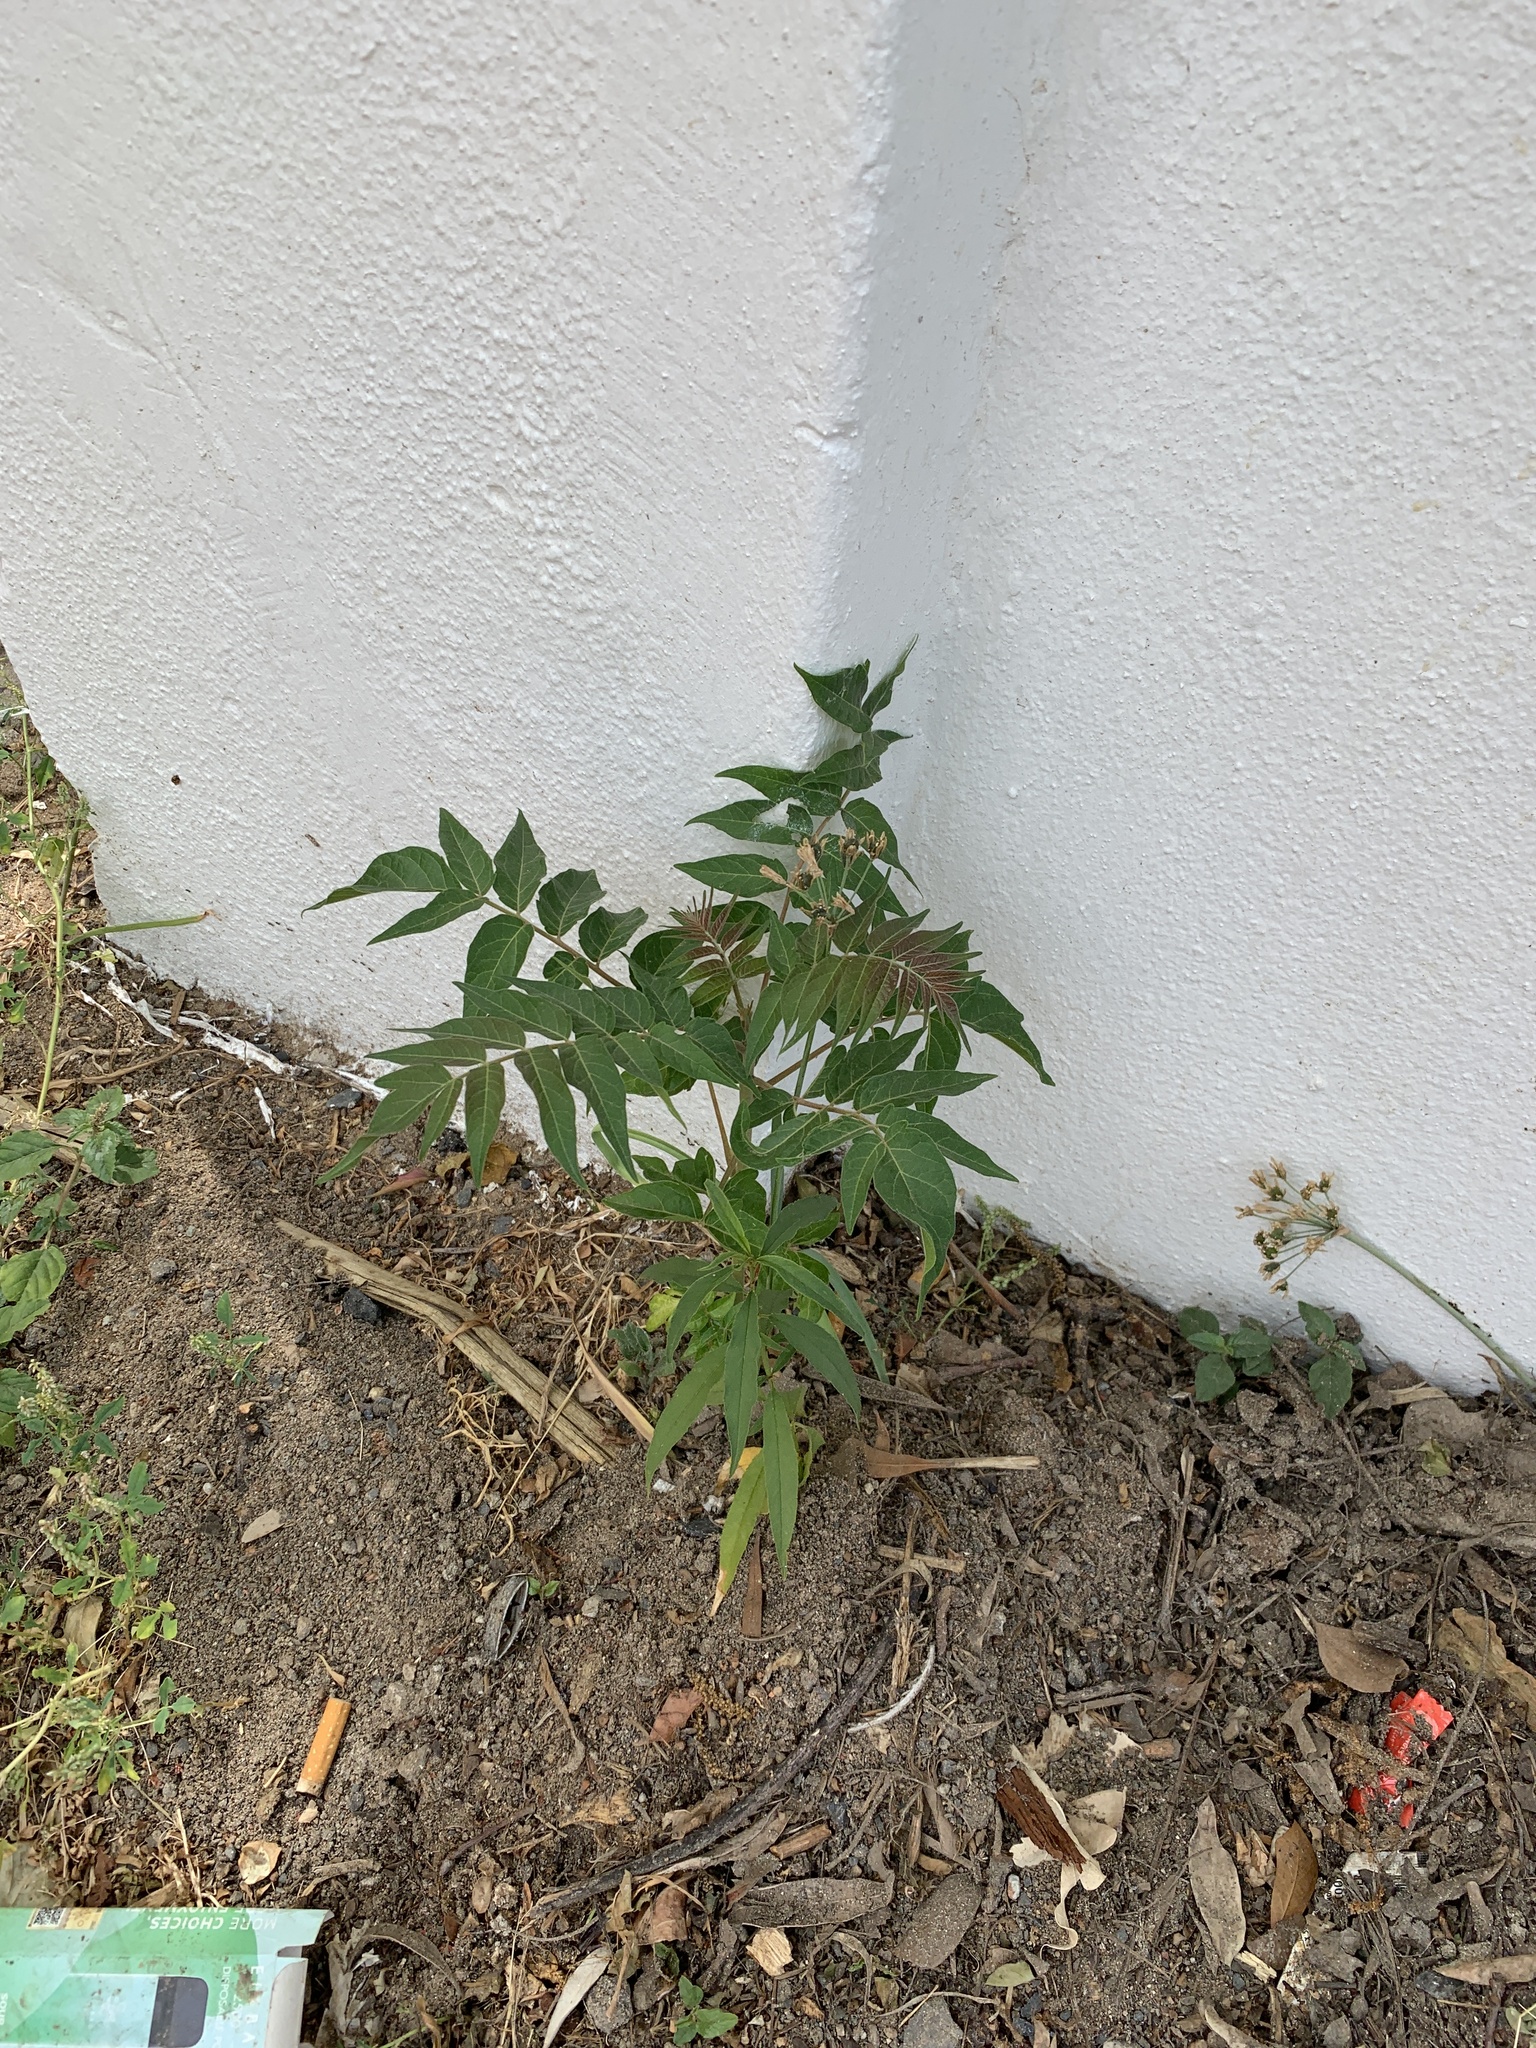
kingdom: Plantae
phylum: Tracheophyta
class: Magnoliopsida
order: Sapindales
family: Simaroubaceae
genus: Ailanthus
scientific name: Ailanthus altissima
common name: Tree-of-heaven
